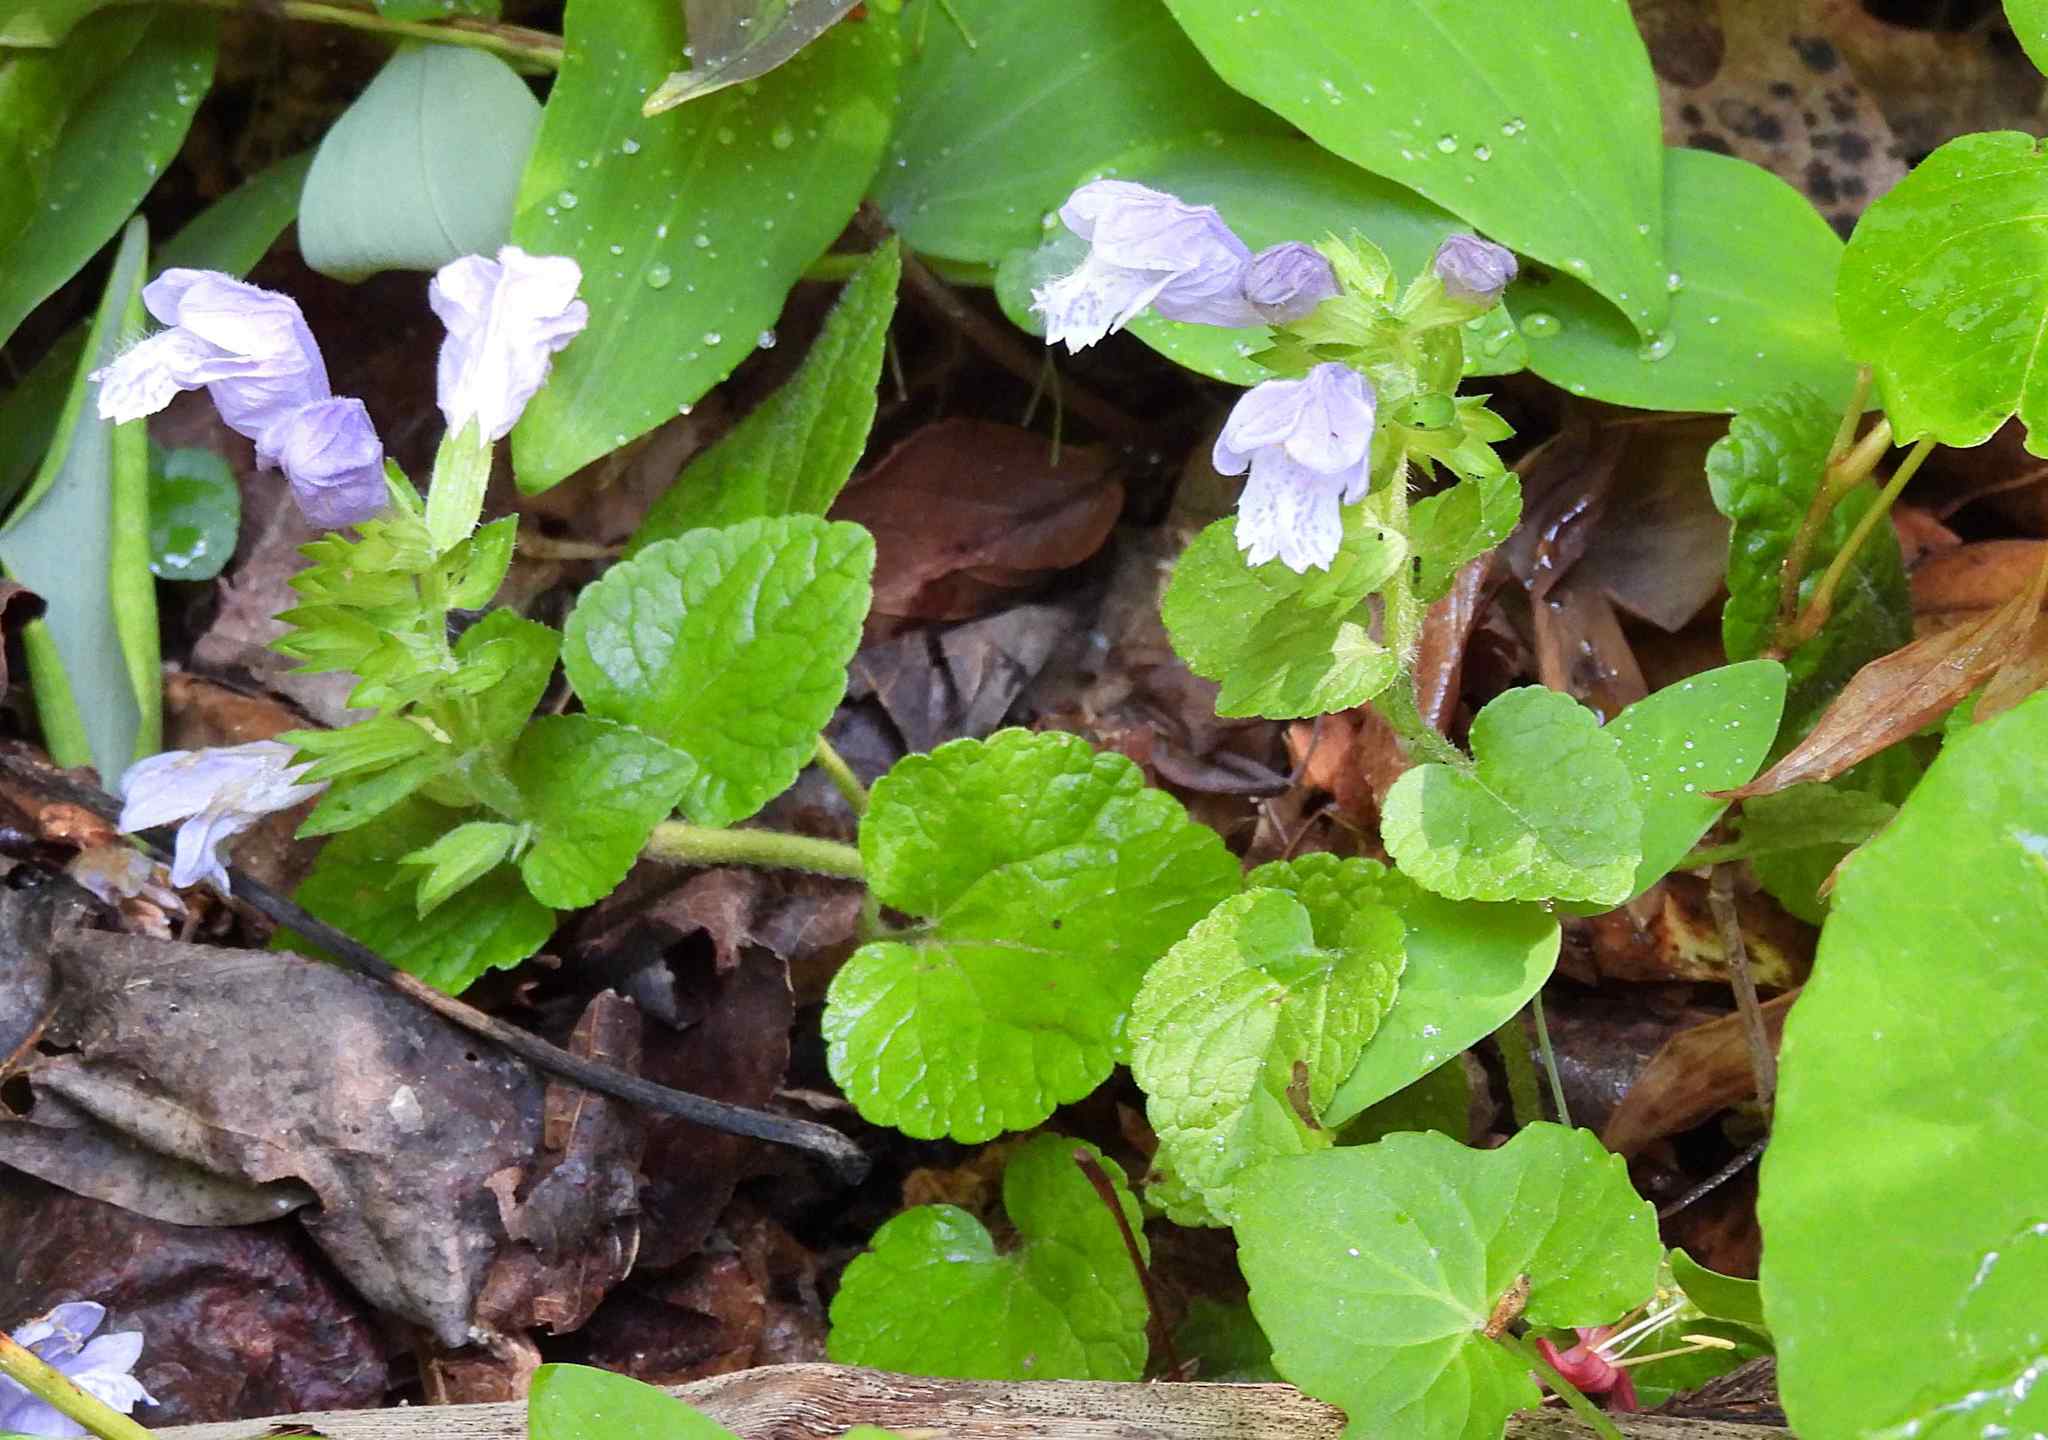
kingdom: Plantae
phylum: Tracheophyta
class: Magnoliopsida
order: Lamiales
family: Lamiaceae
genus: Meehania
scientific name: Meehania cordata
